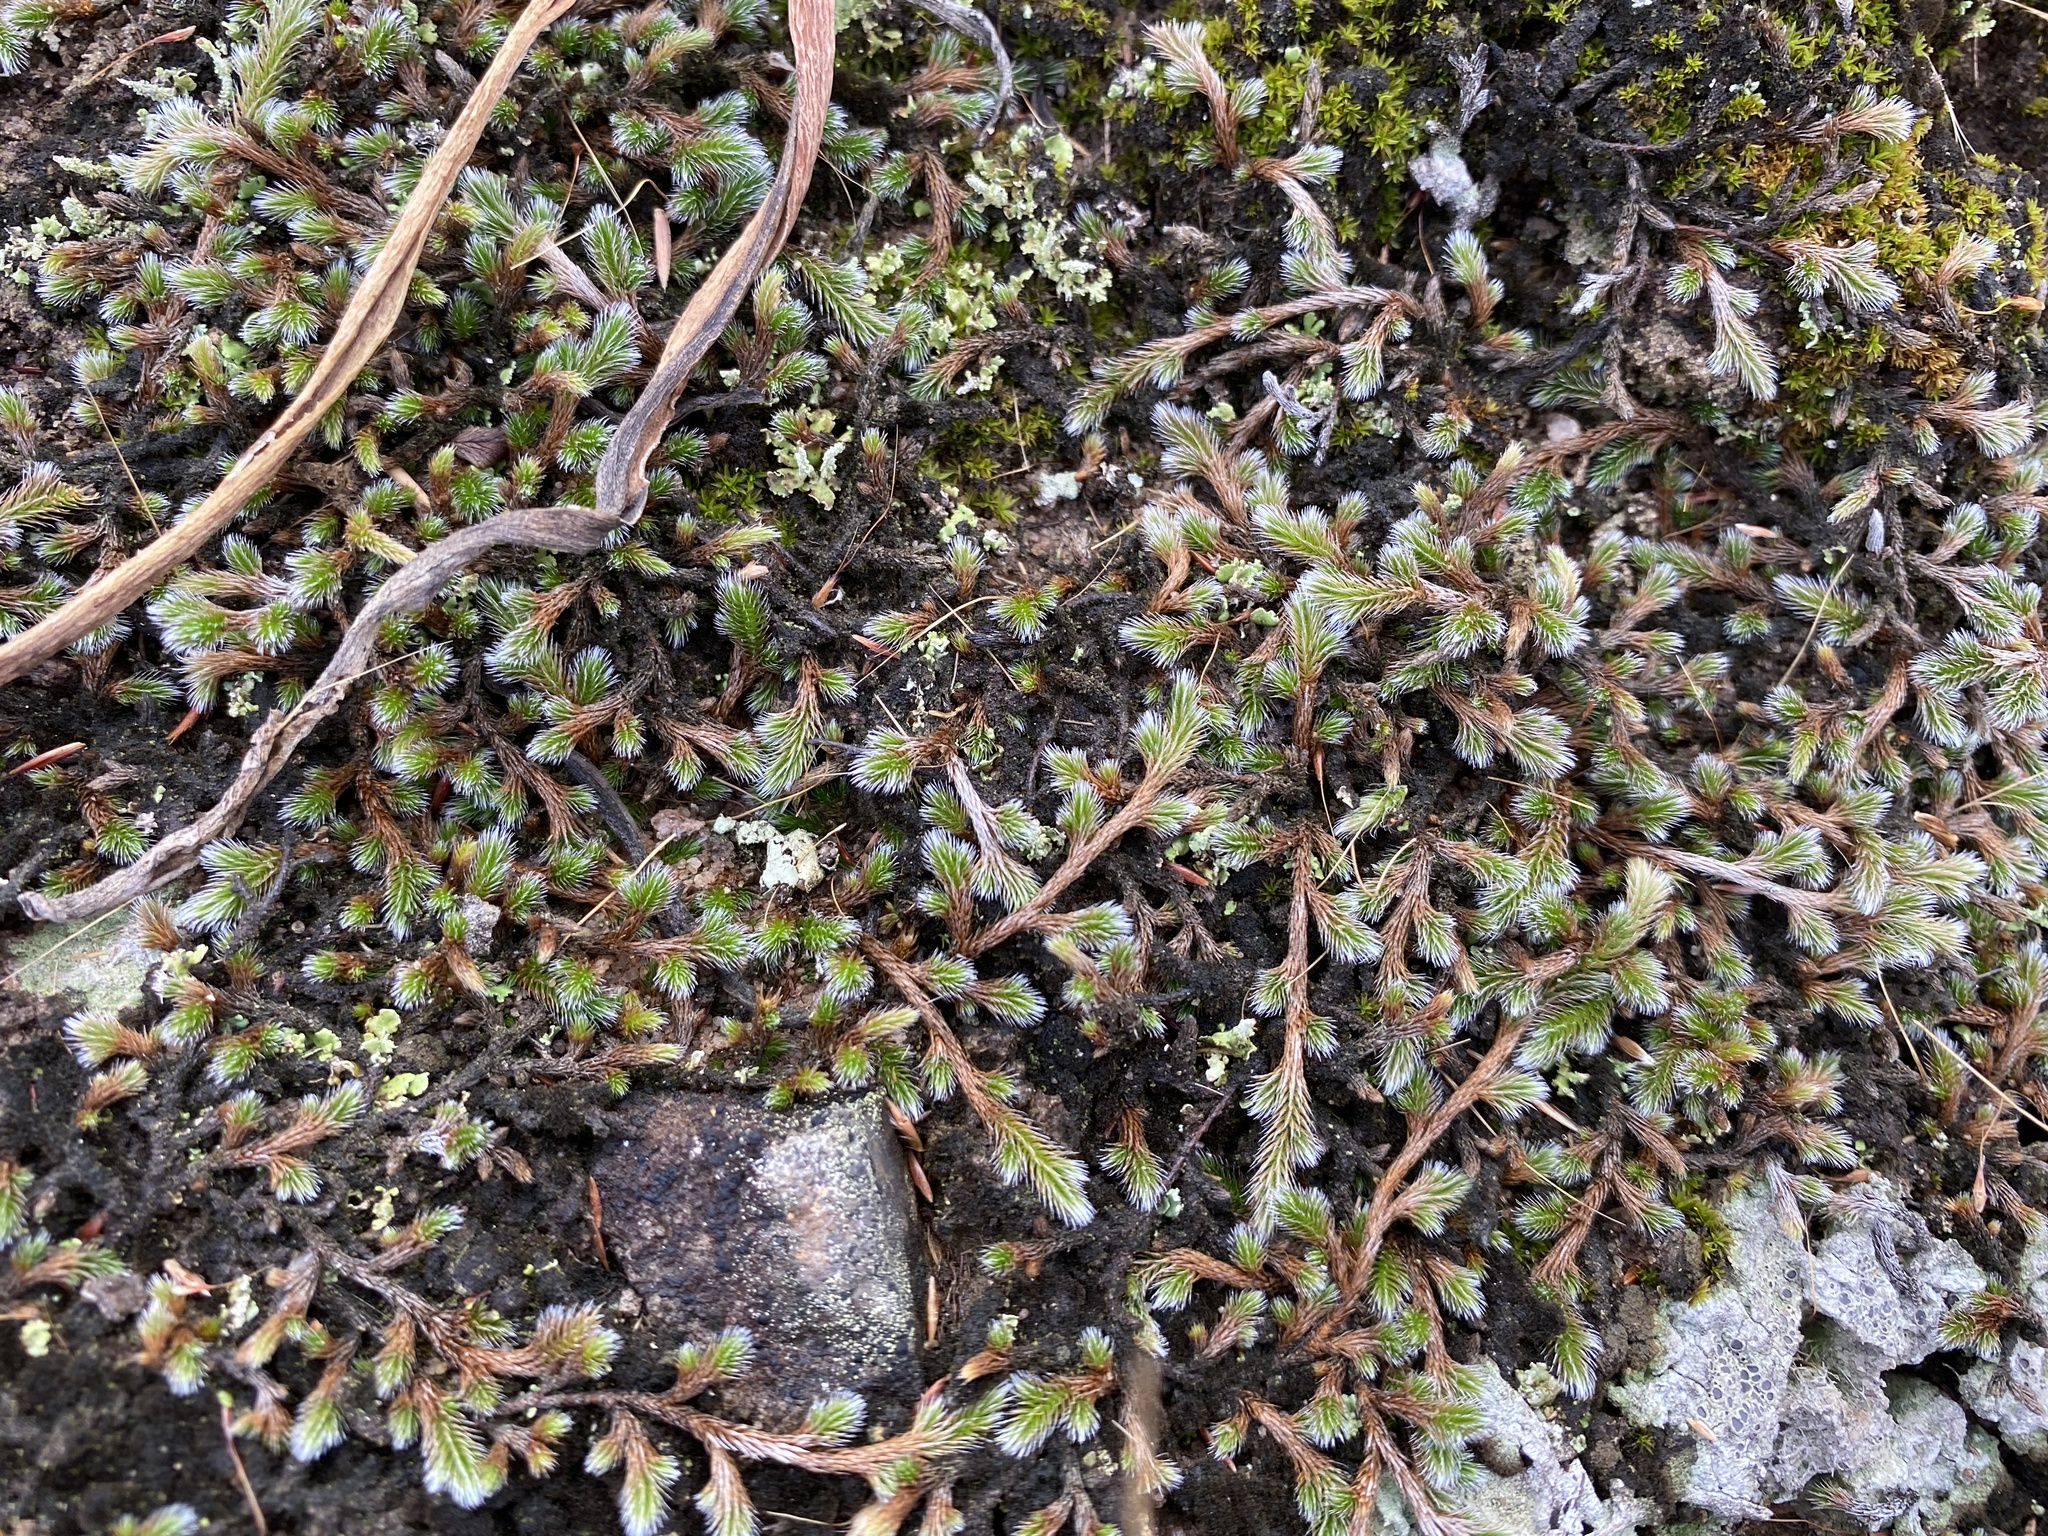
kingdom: Plantae
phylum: Tracheophyta
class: Lycopodiopsida
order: Selaginellales
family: Selaginellaceae
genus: Selaginella
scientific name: Selaginella dregei
